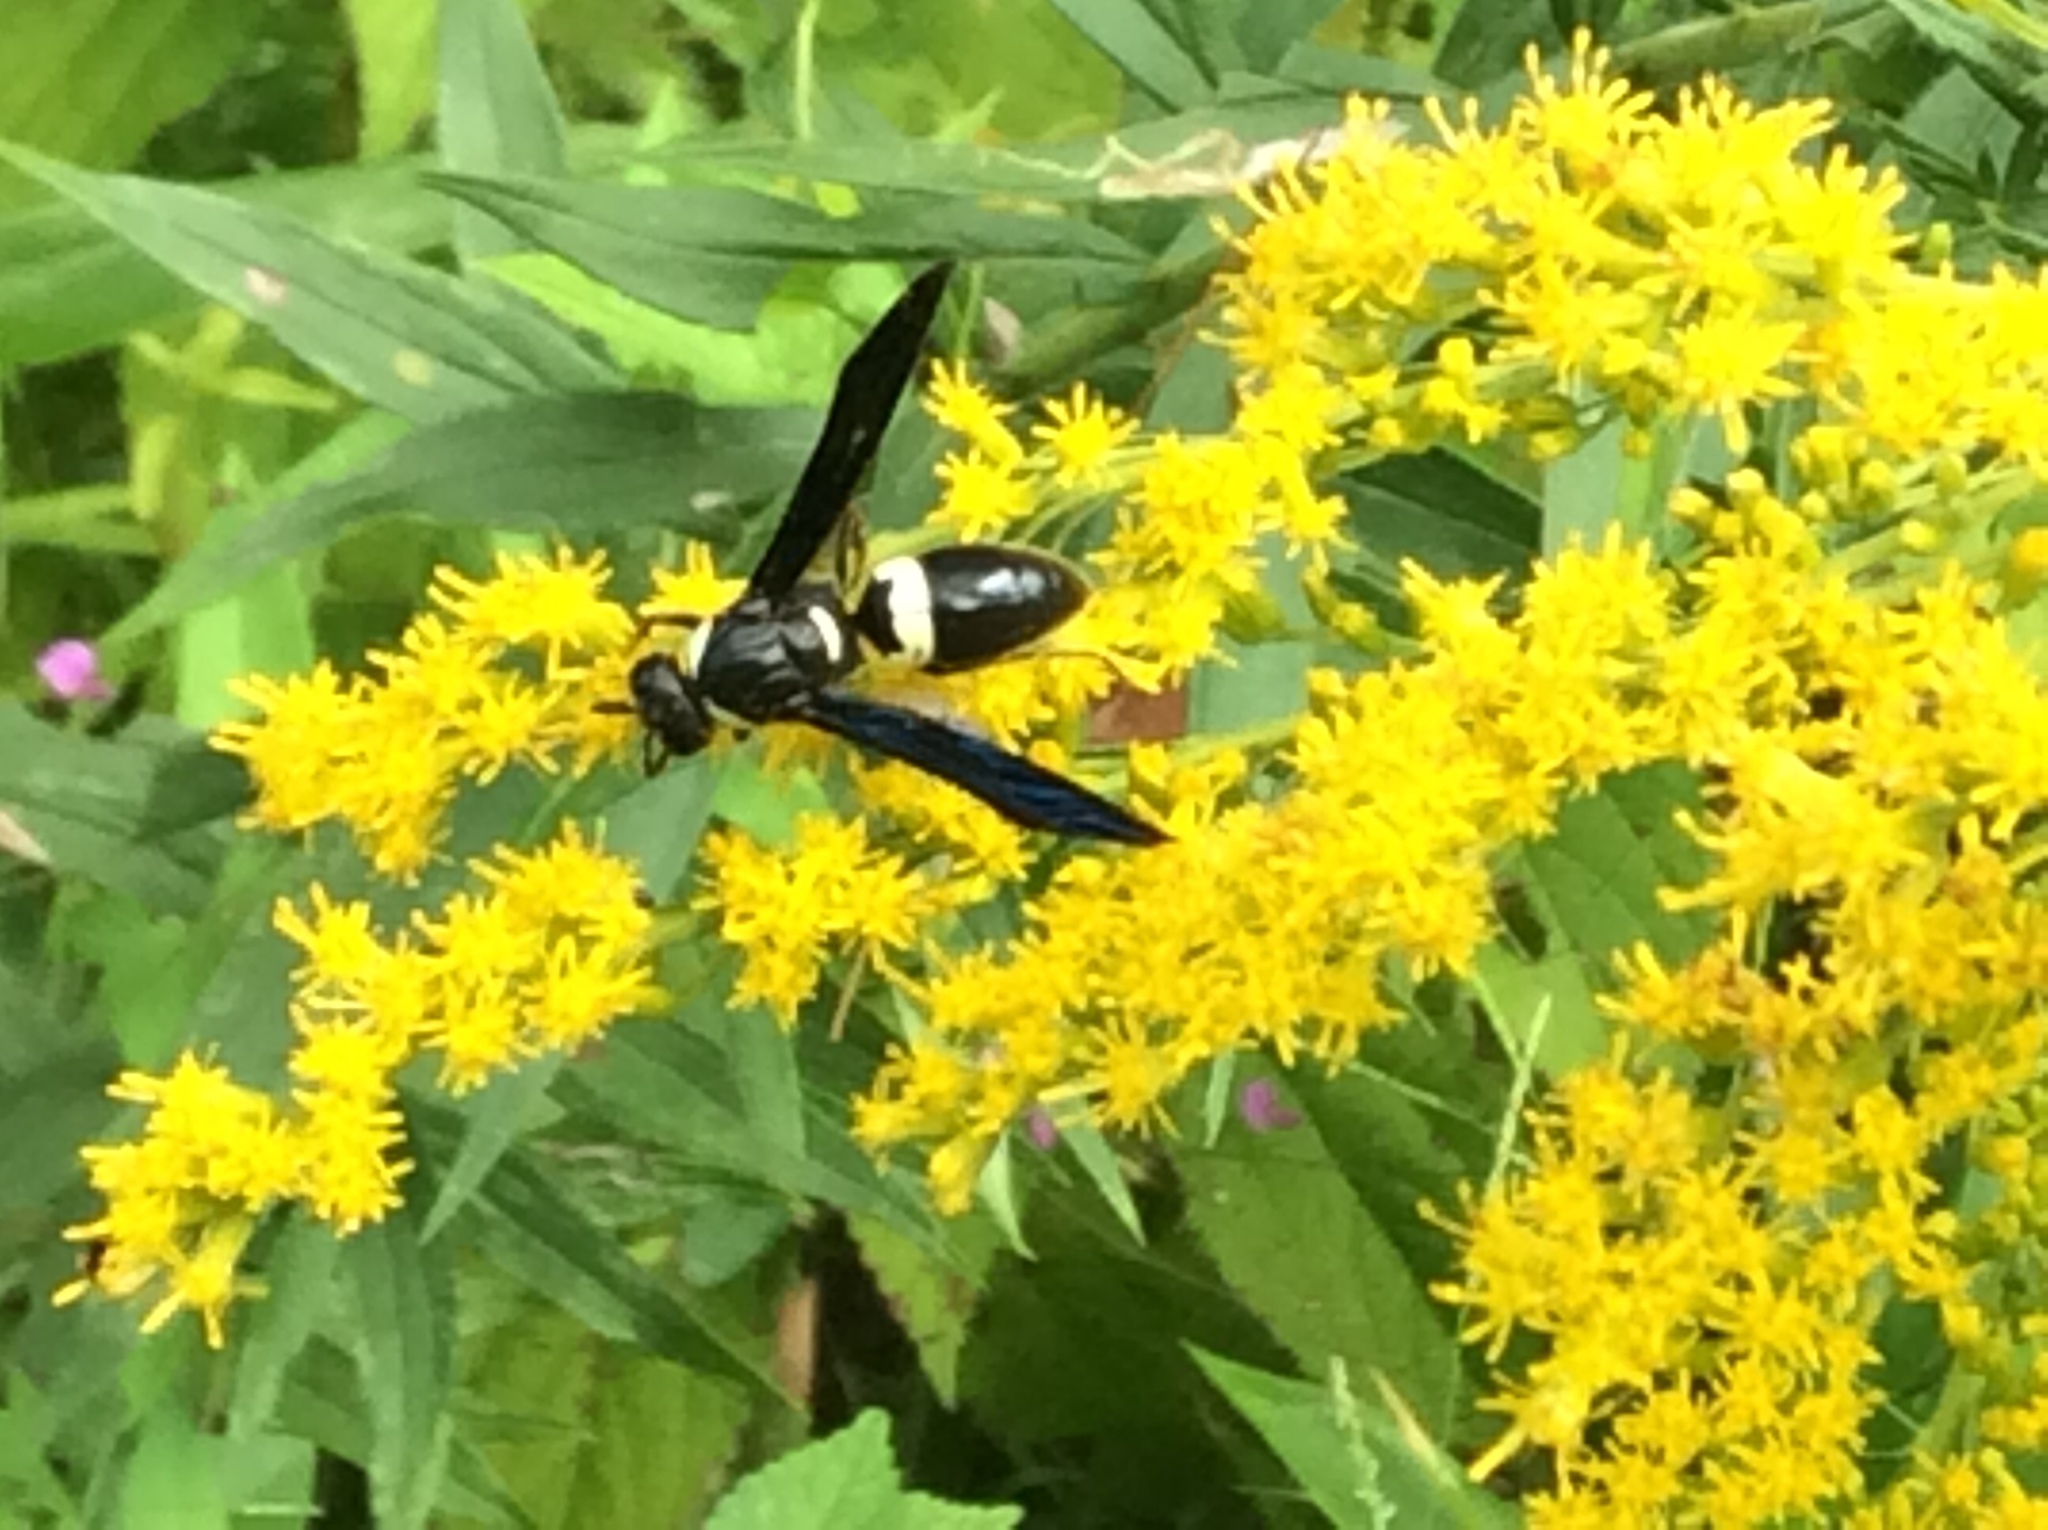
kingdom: Animalia
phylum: Arthropoda
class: Insecta
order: Hymenoptera
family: Eumenidae
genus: Monobia
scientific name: Monobia quadridens
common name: Four-toothed mason wasp
